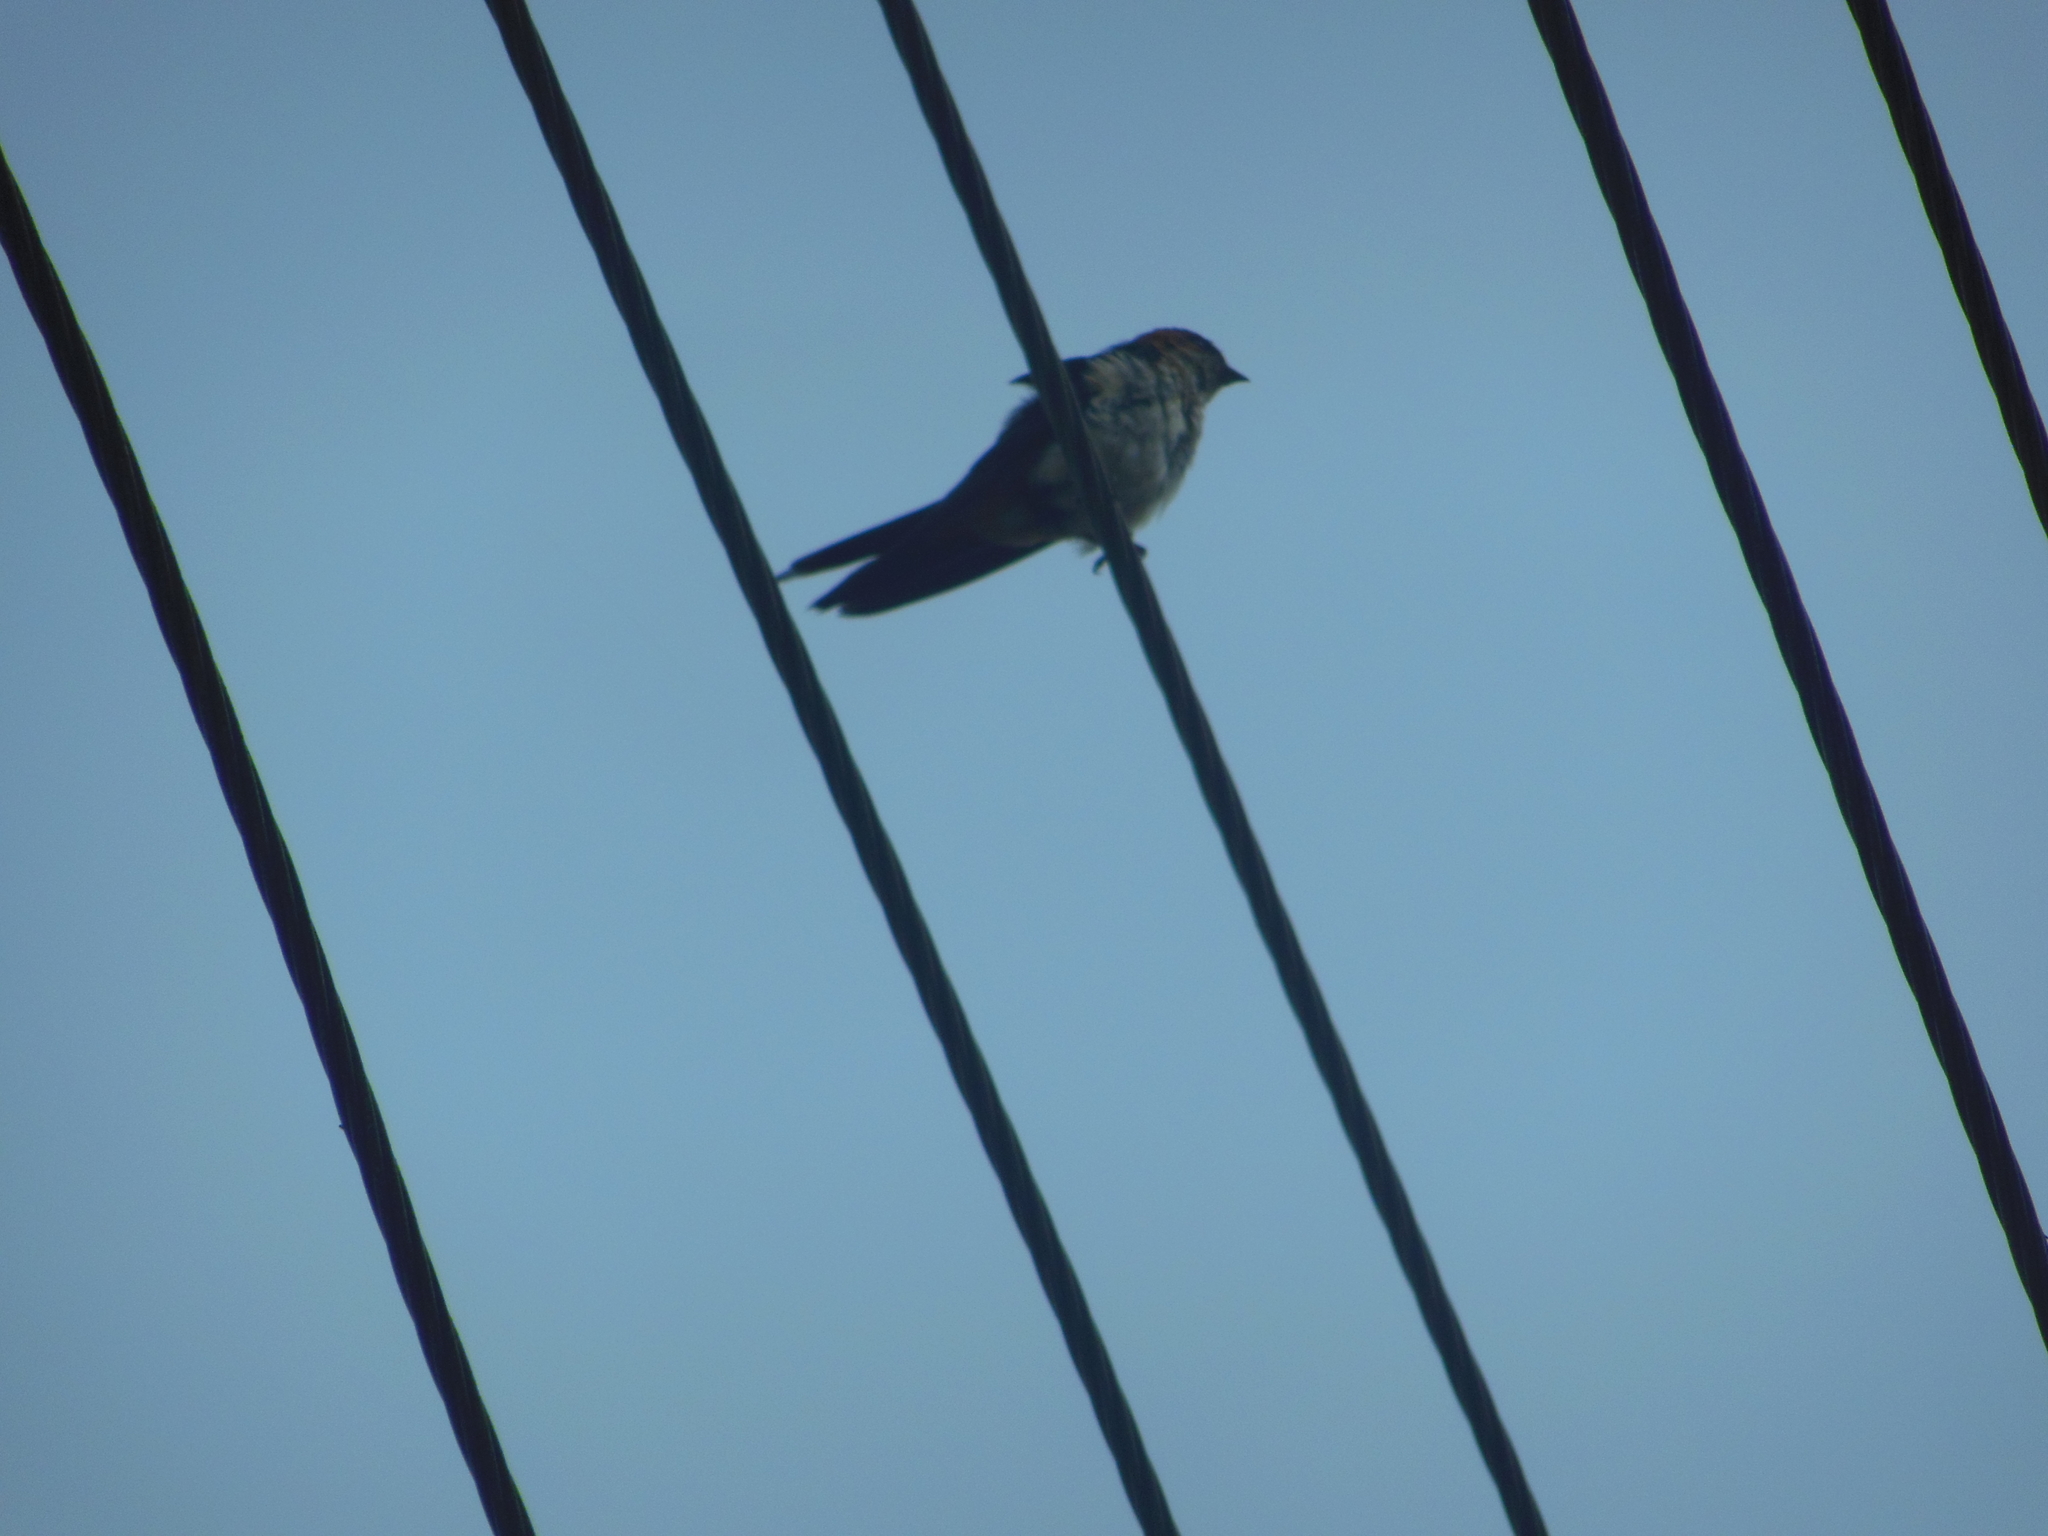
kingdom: Animalia
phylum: Chordata
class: Aves
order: Passeriformes
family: Hirundinidae
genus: Cecropis
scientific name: Cecropis daurica
